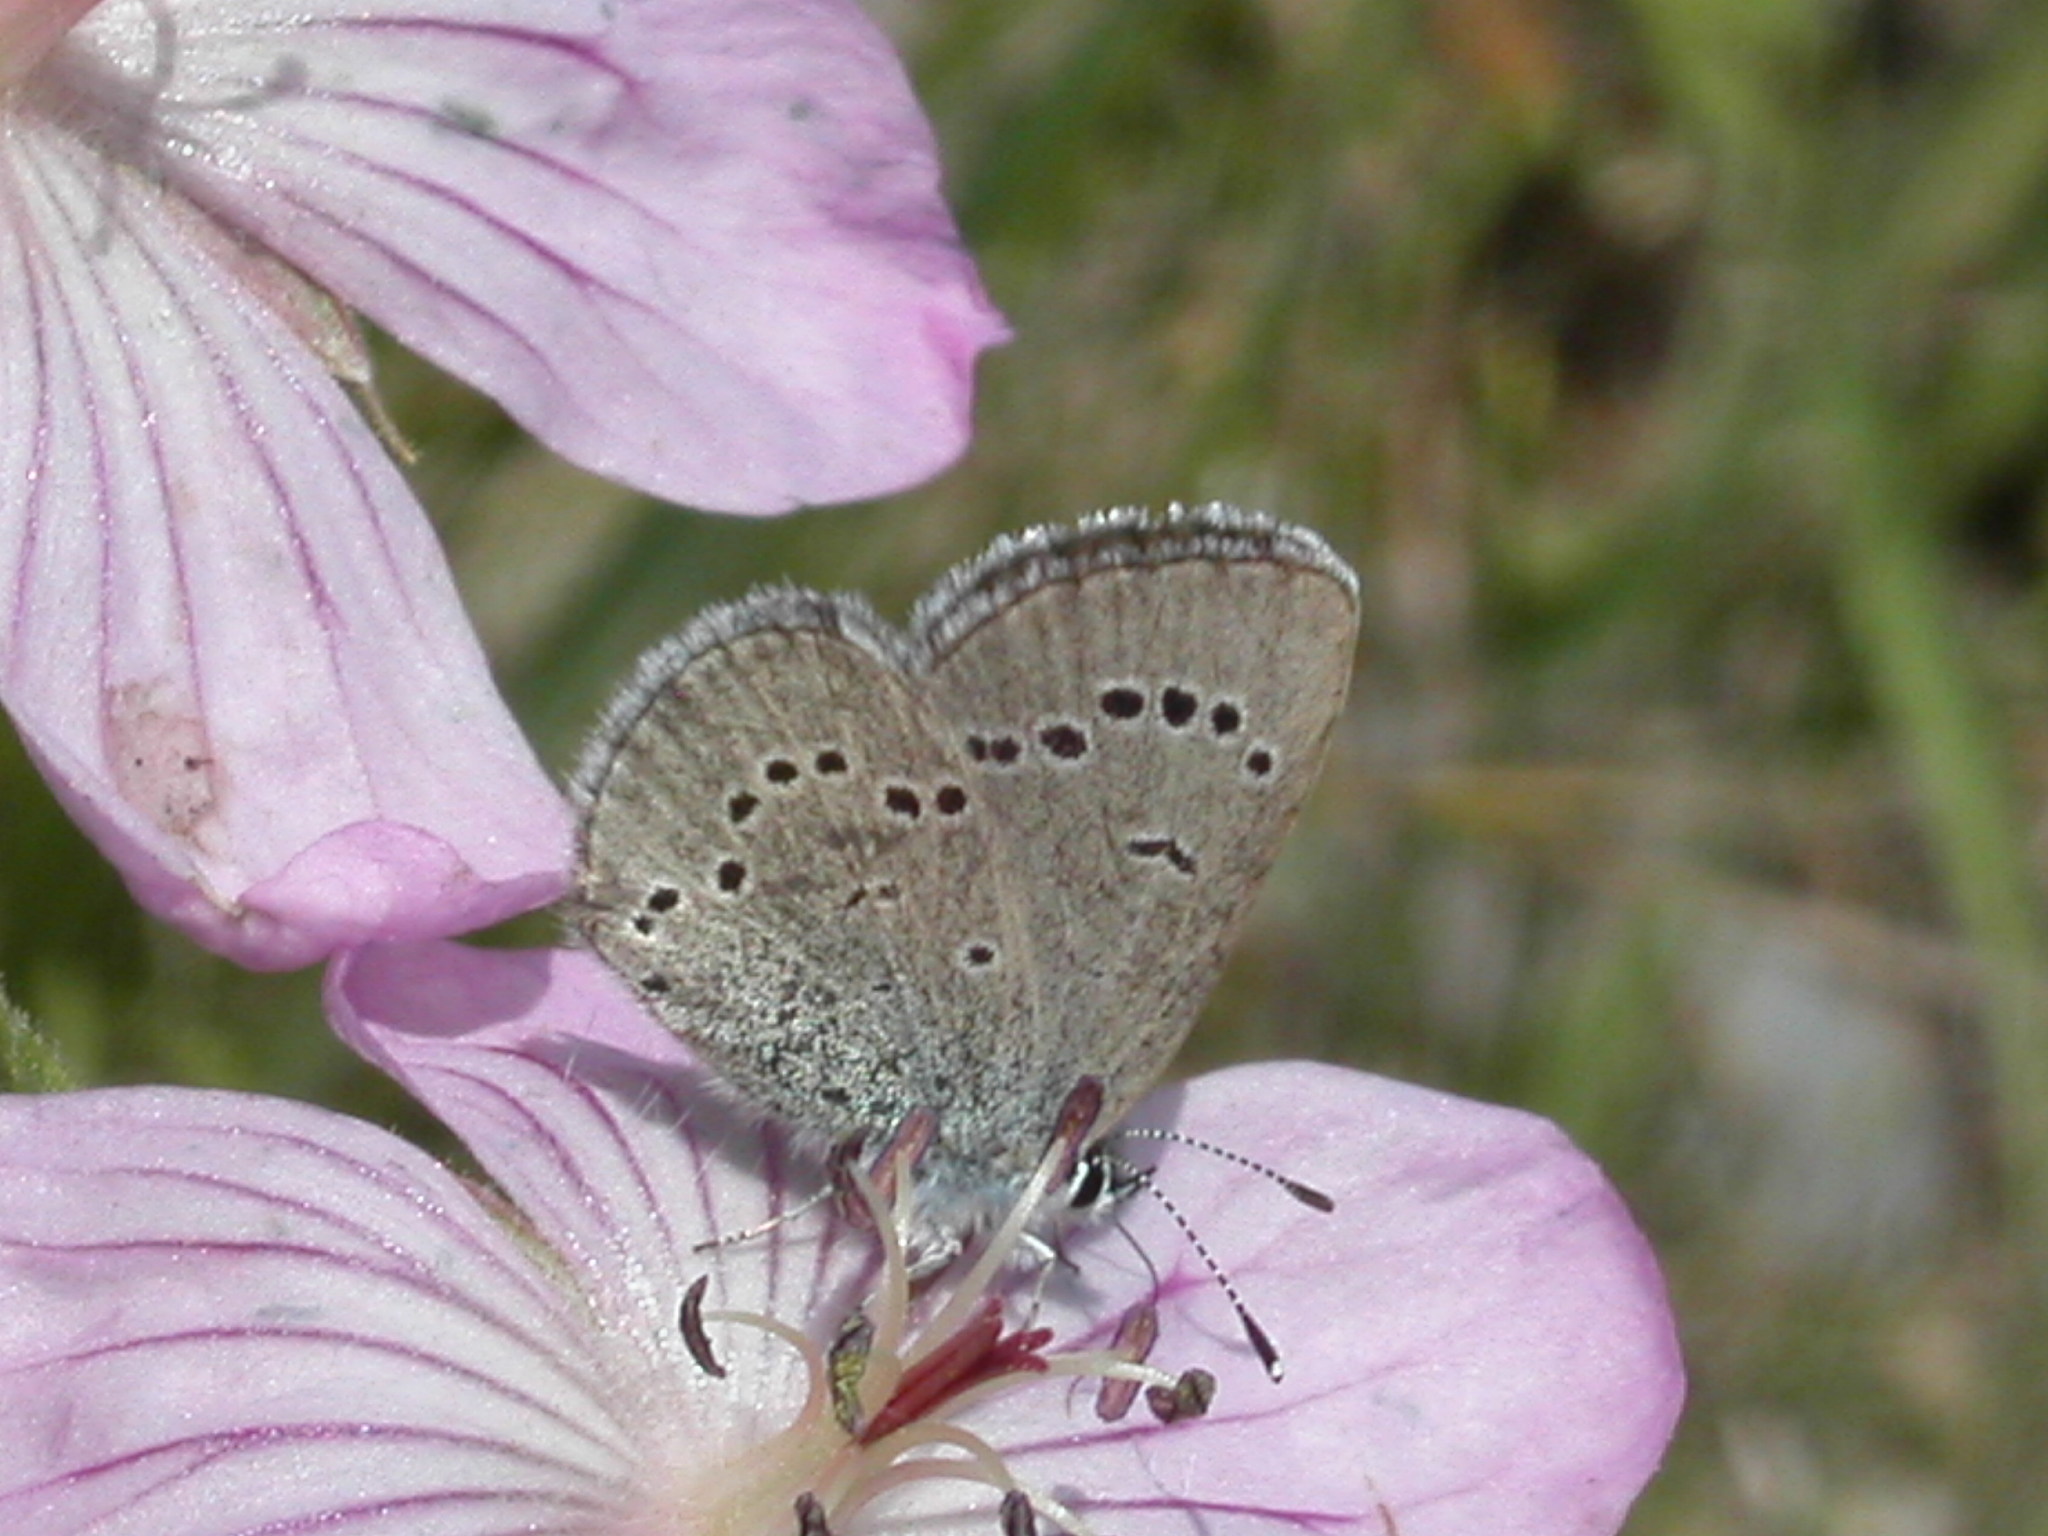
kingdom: Animalia
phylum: Arthropoda
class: Insecta
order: Lepidoptera
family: Lycaenidae
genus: Glaucopsyche
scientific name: Glaucopsyche lygdamus
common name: Silvery blue
